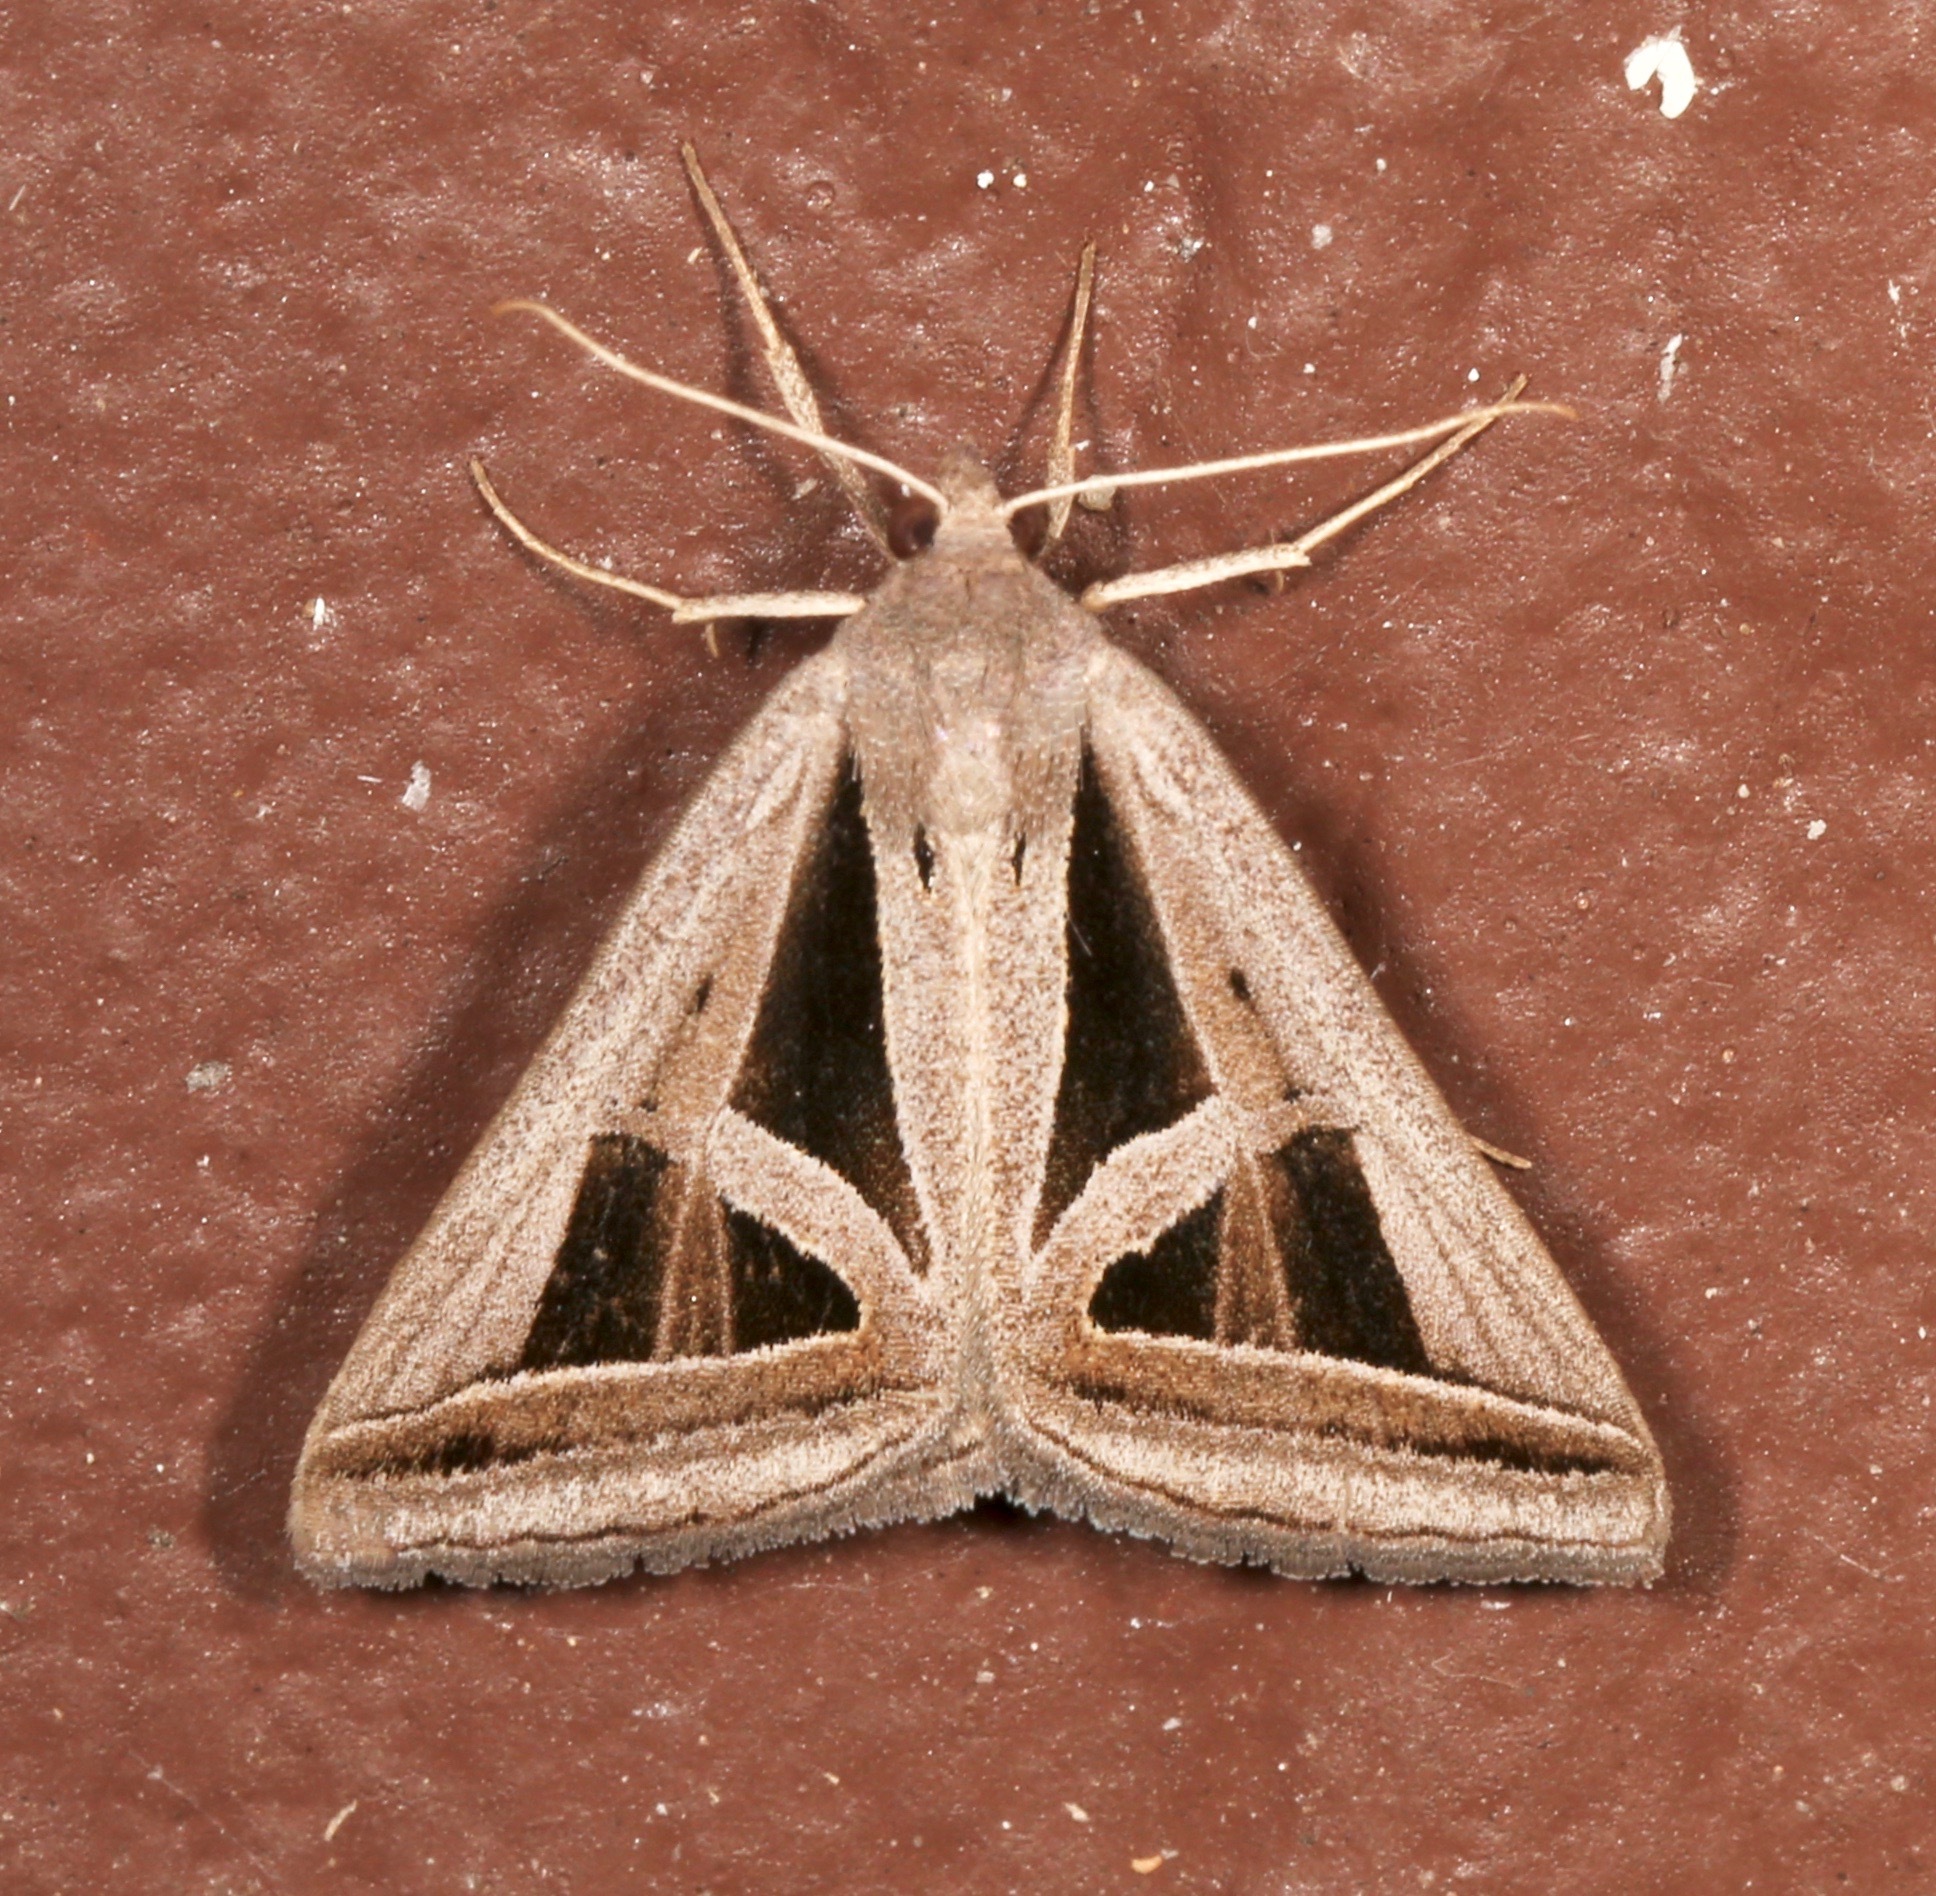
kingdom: Animalia
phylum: Arthropoda
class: Insecta
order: Lepidoptera
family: Erebidae
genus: Callistege
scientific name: Callistege triangula
